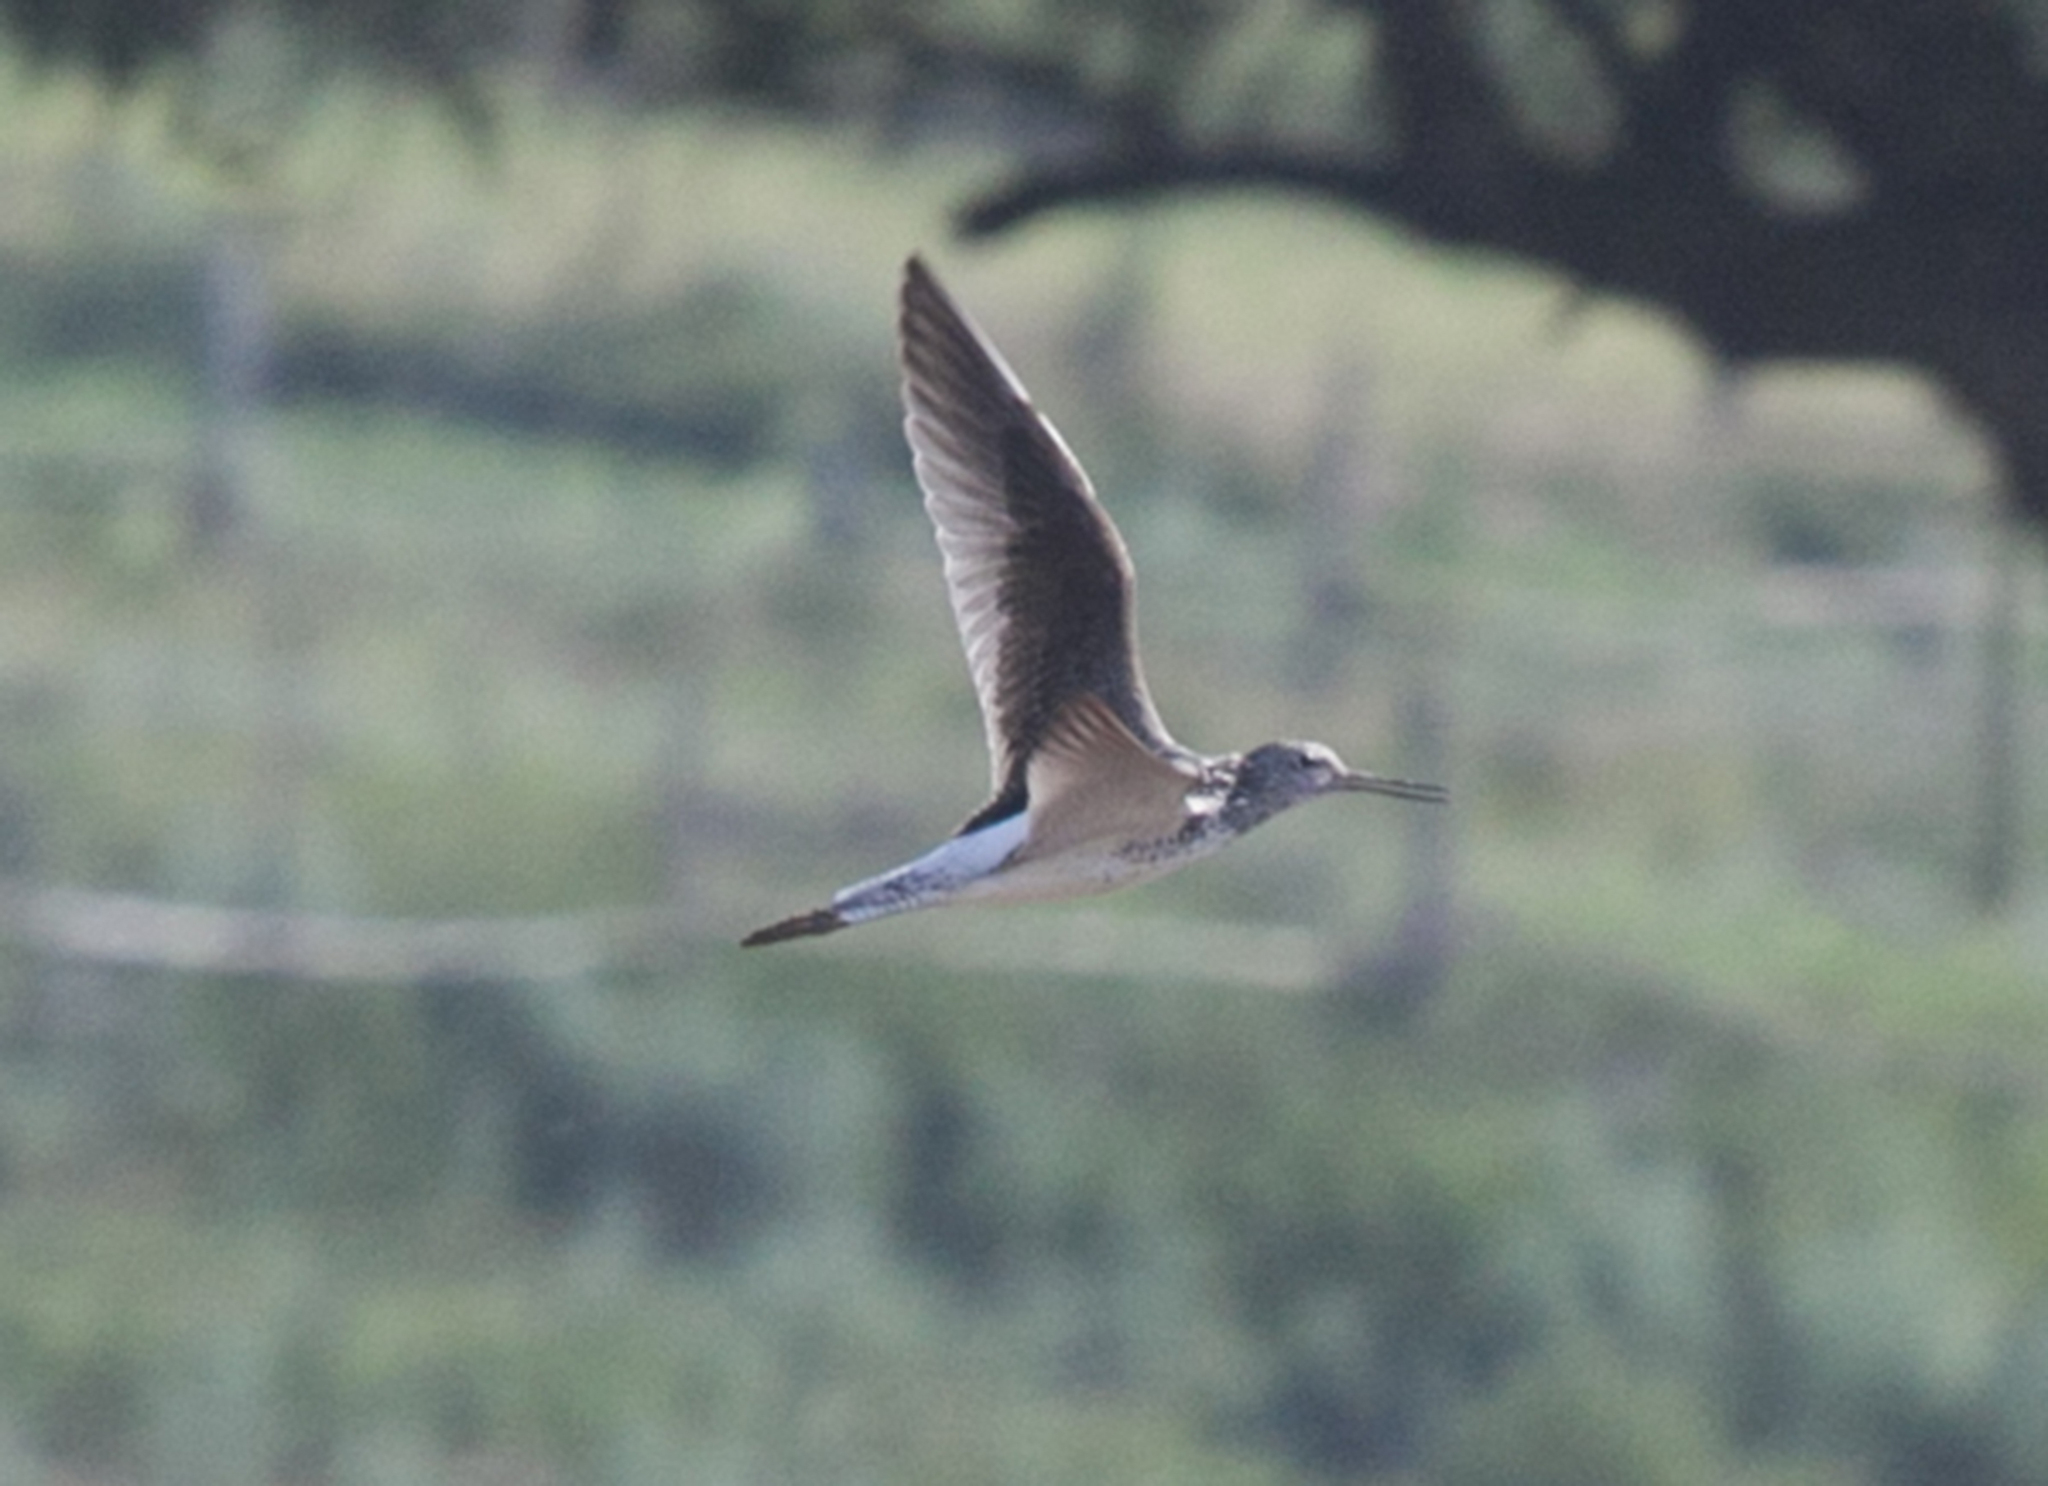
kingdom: Animalia
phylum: Chordata
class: Aves
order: Charadriiformes
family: Scolopacidae
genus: Tringa
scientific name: Tringa nebularia
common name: Common greenshank
